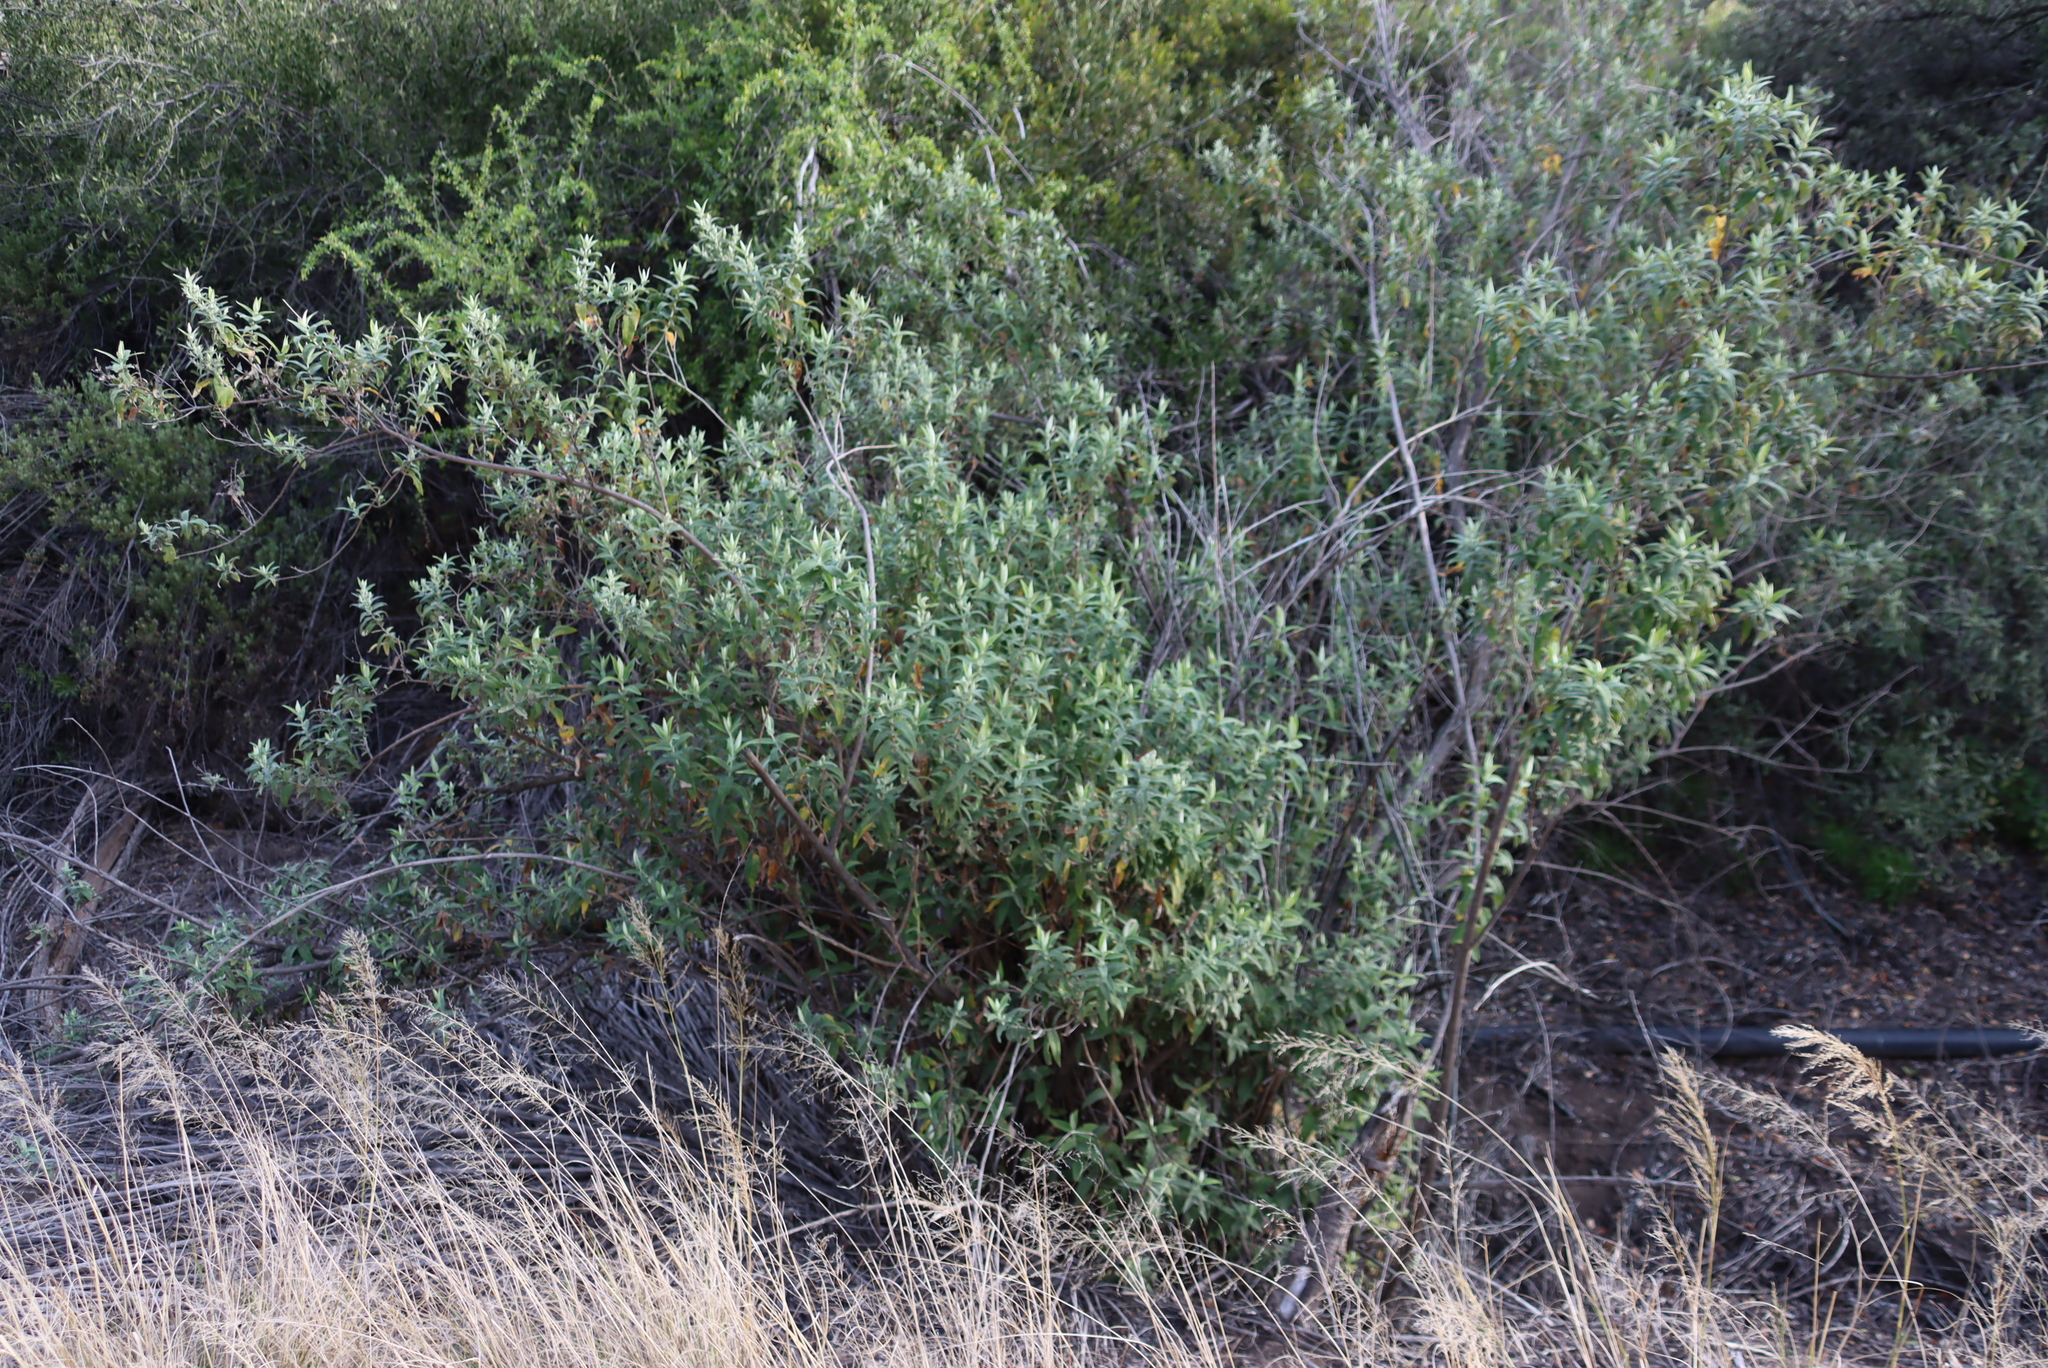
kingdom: Plantae
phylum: Tracheophyta
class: Magnoliopsida
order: Lamiales
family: Scrophulariaceae
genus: Buddleja
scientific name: Buddleja salviifolia
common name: Sagewood
